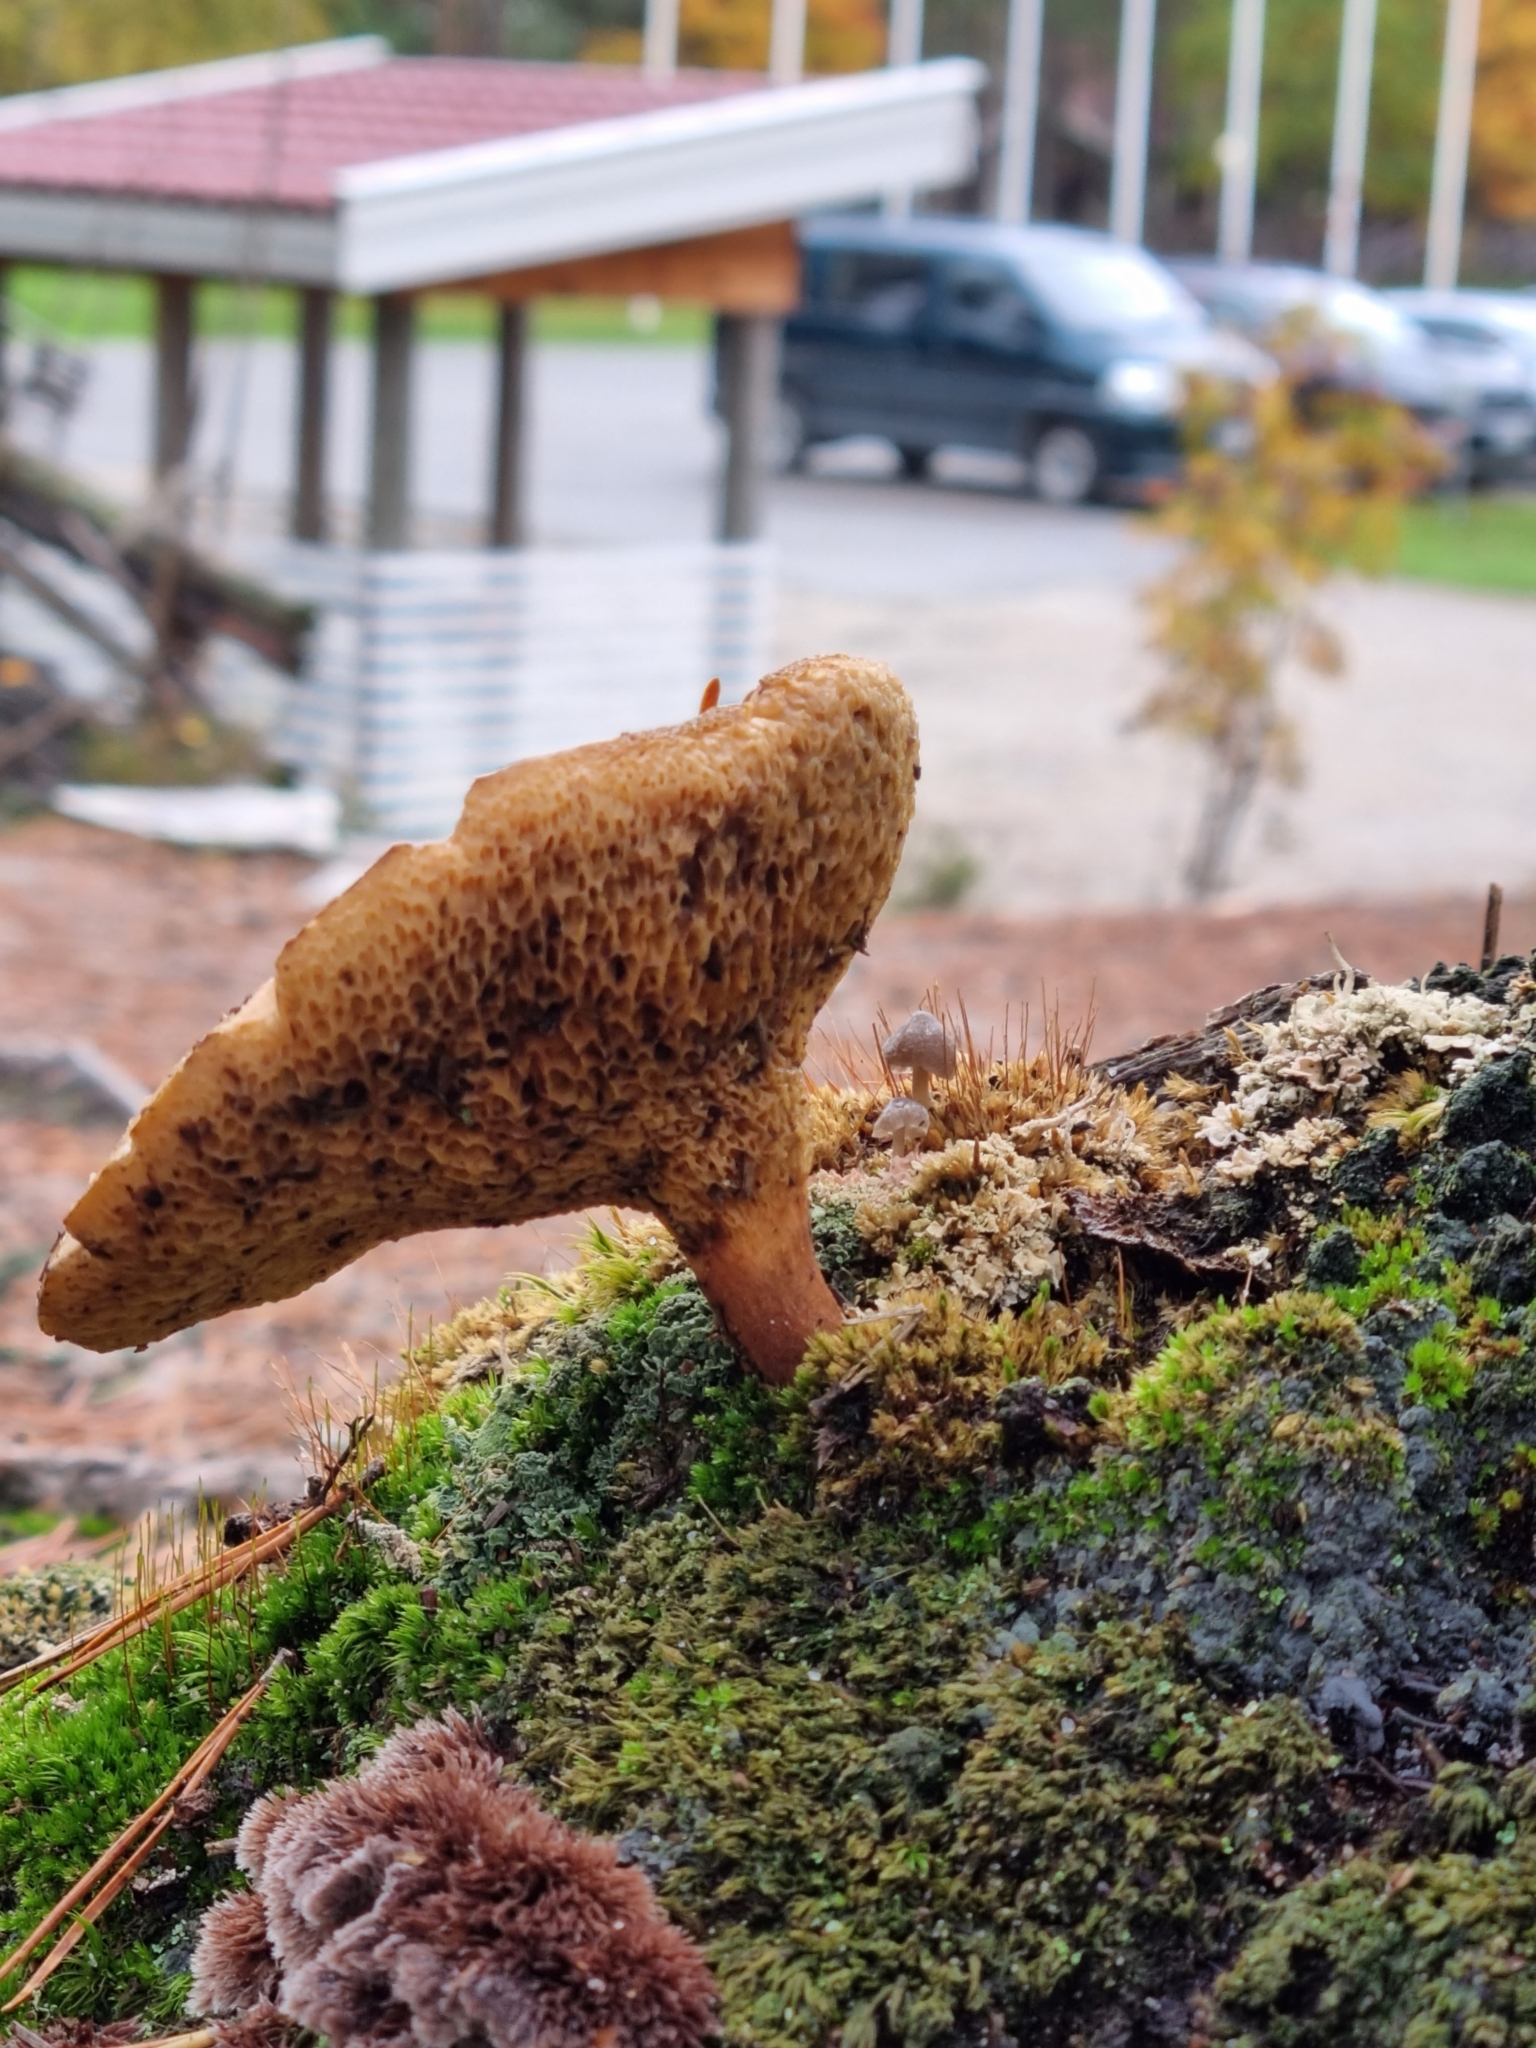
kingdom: Fungi
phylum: Basidiomycota
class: Agaricomycetes
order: Boletales
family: Suillaceae
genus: Suillus
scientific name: Suillus bovinus
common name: Bovine bolete
